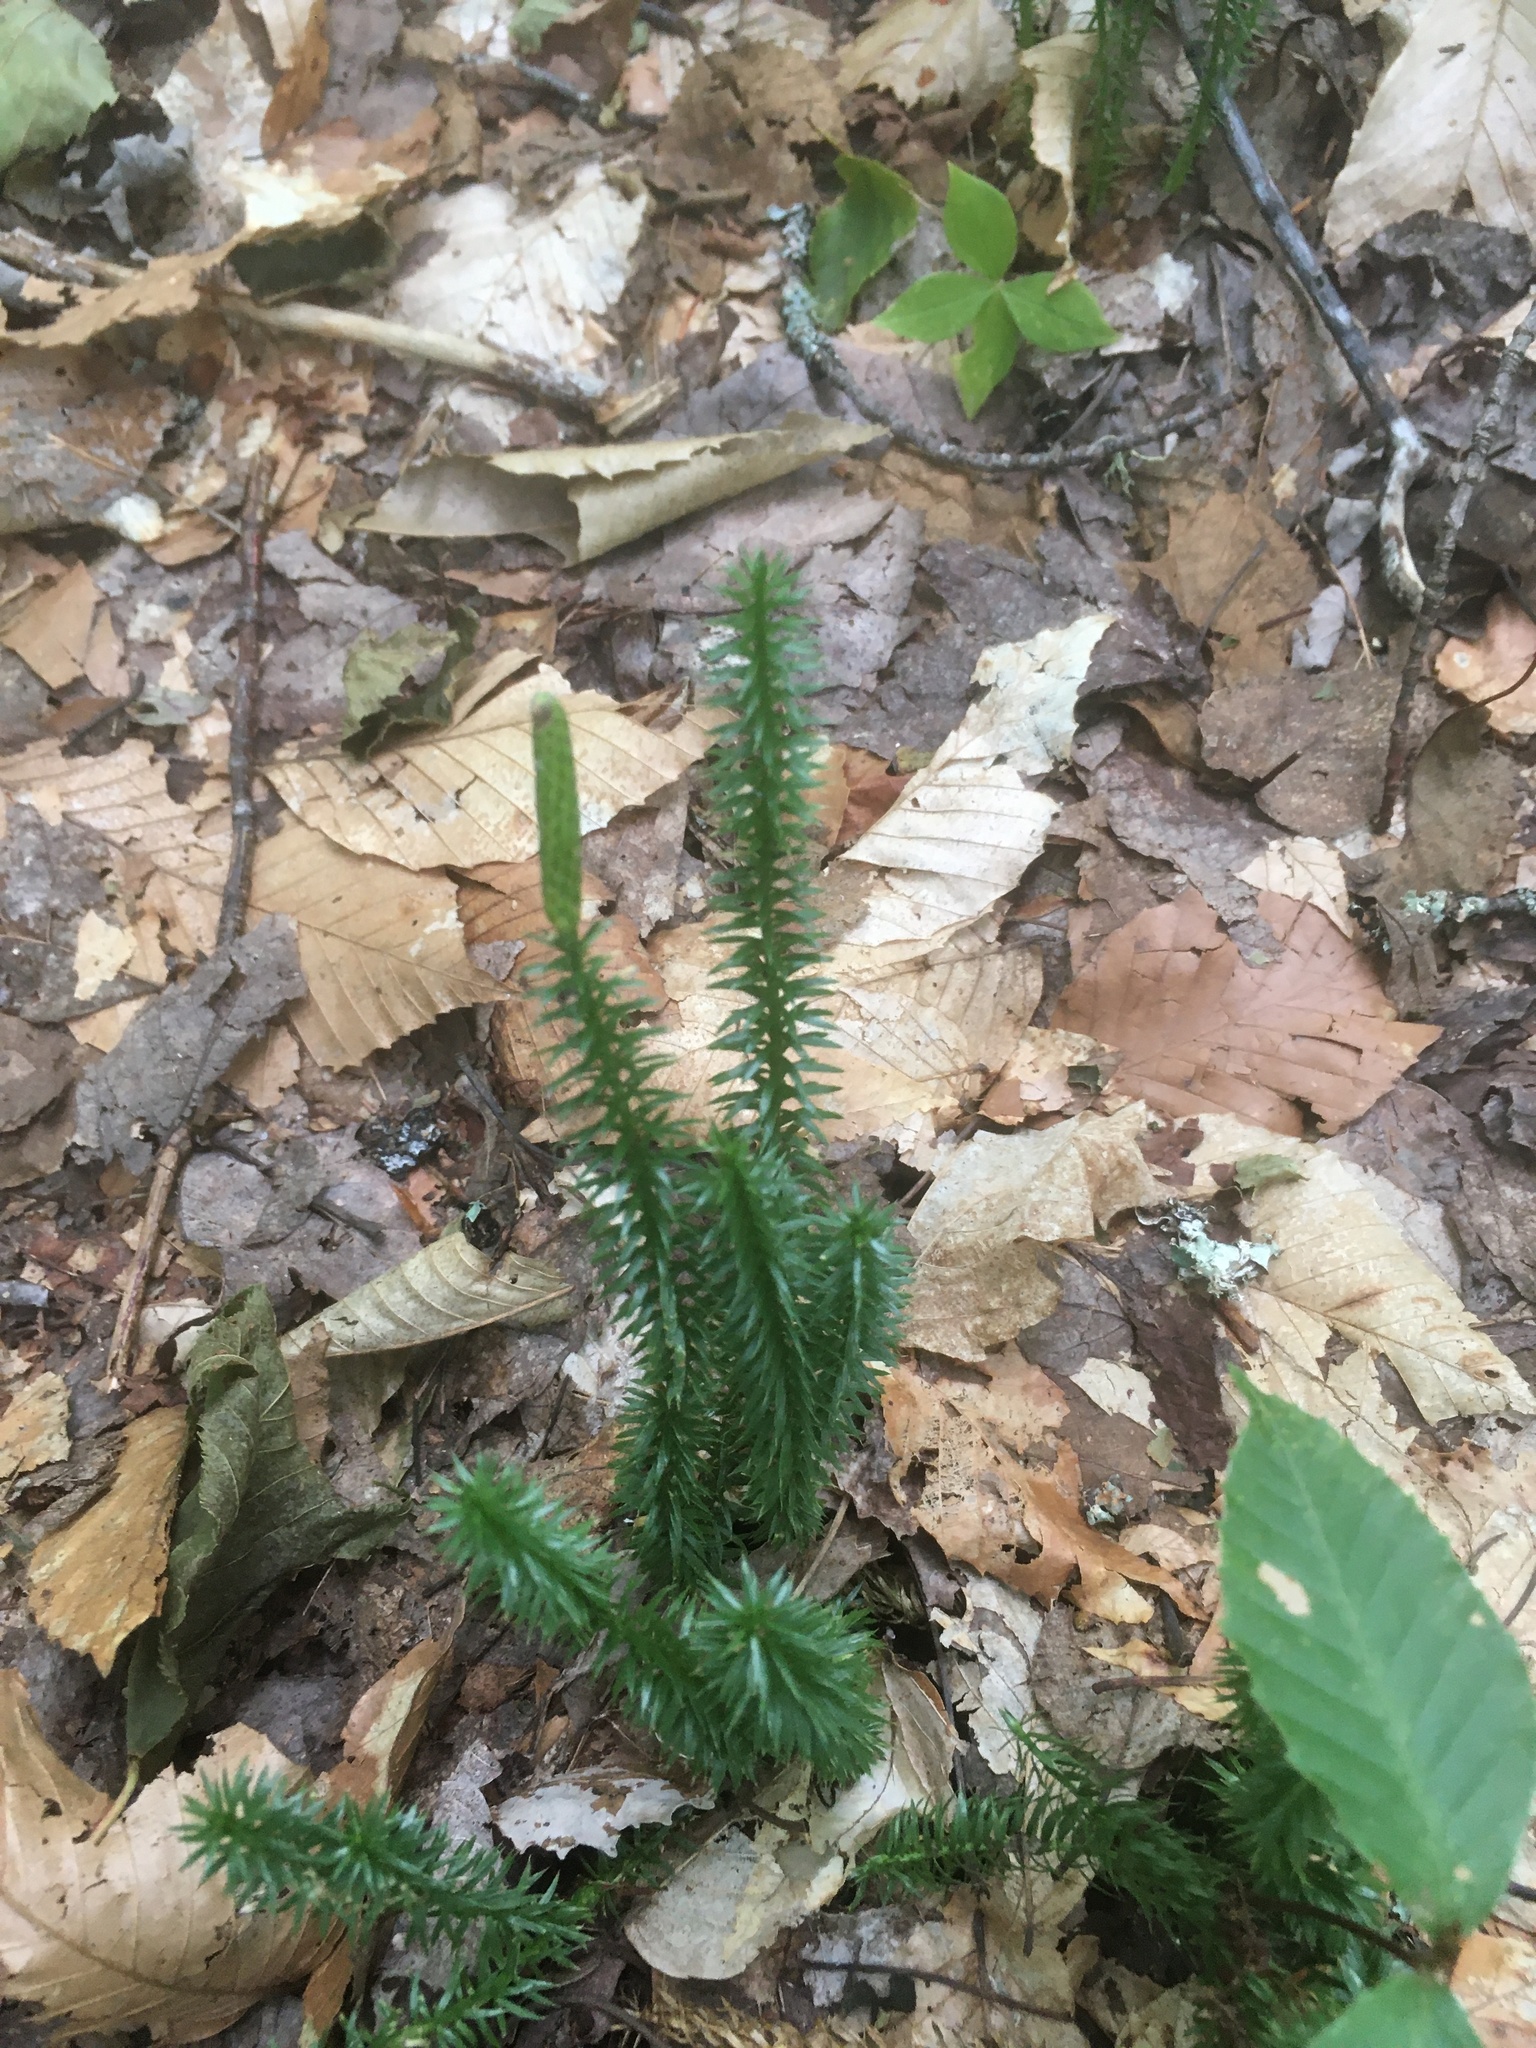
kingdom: Plantae
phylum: Tracheophyta
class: Lycopodiopsida
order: Lycopodiales
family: Lycopodiaceae
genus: Spinulum
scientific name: Spinulum annotinum
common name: Interrupted club-moss
